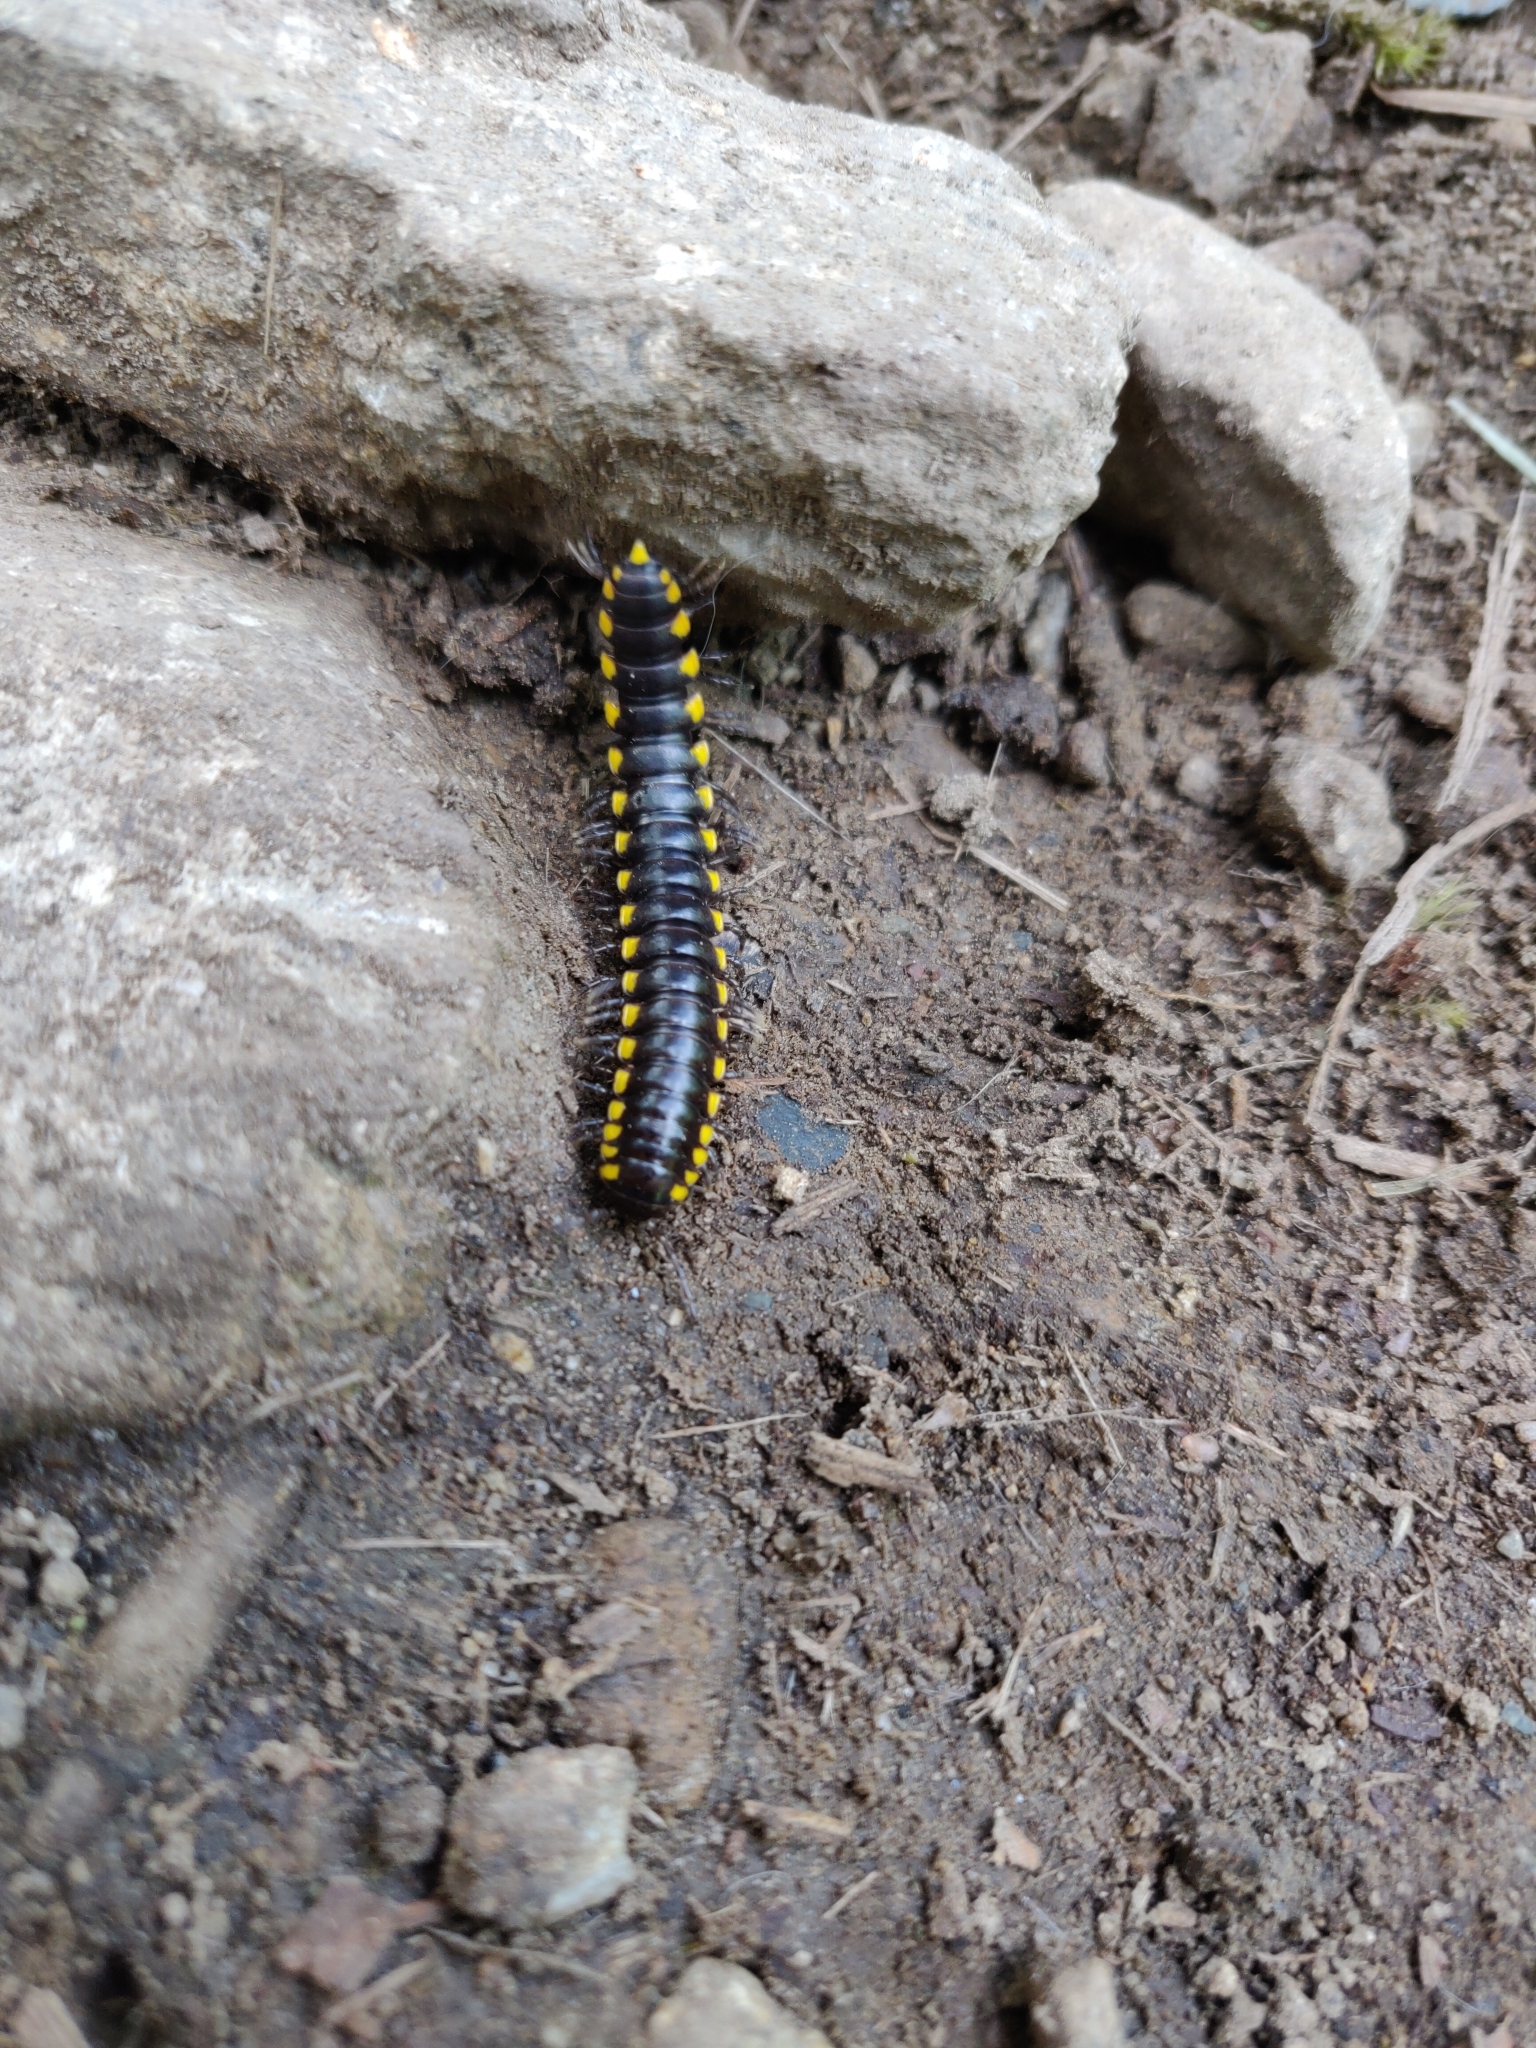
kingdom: Animalia
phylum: Arthropoda
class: Diplopoda
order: Polydesmida
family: Xystodesmidae
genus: Harpaphe
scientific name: Harpaphe haydeniana
